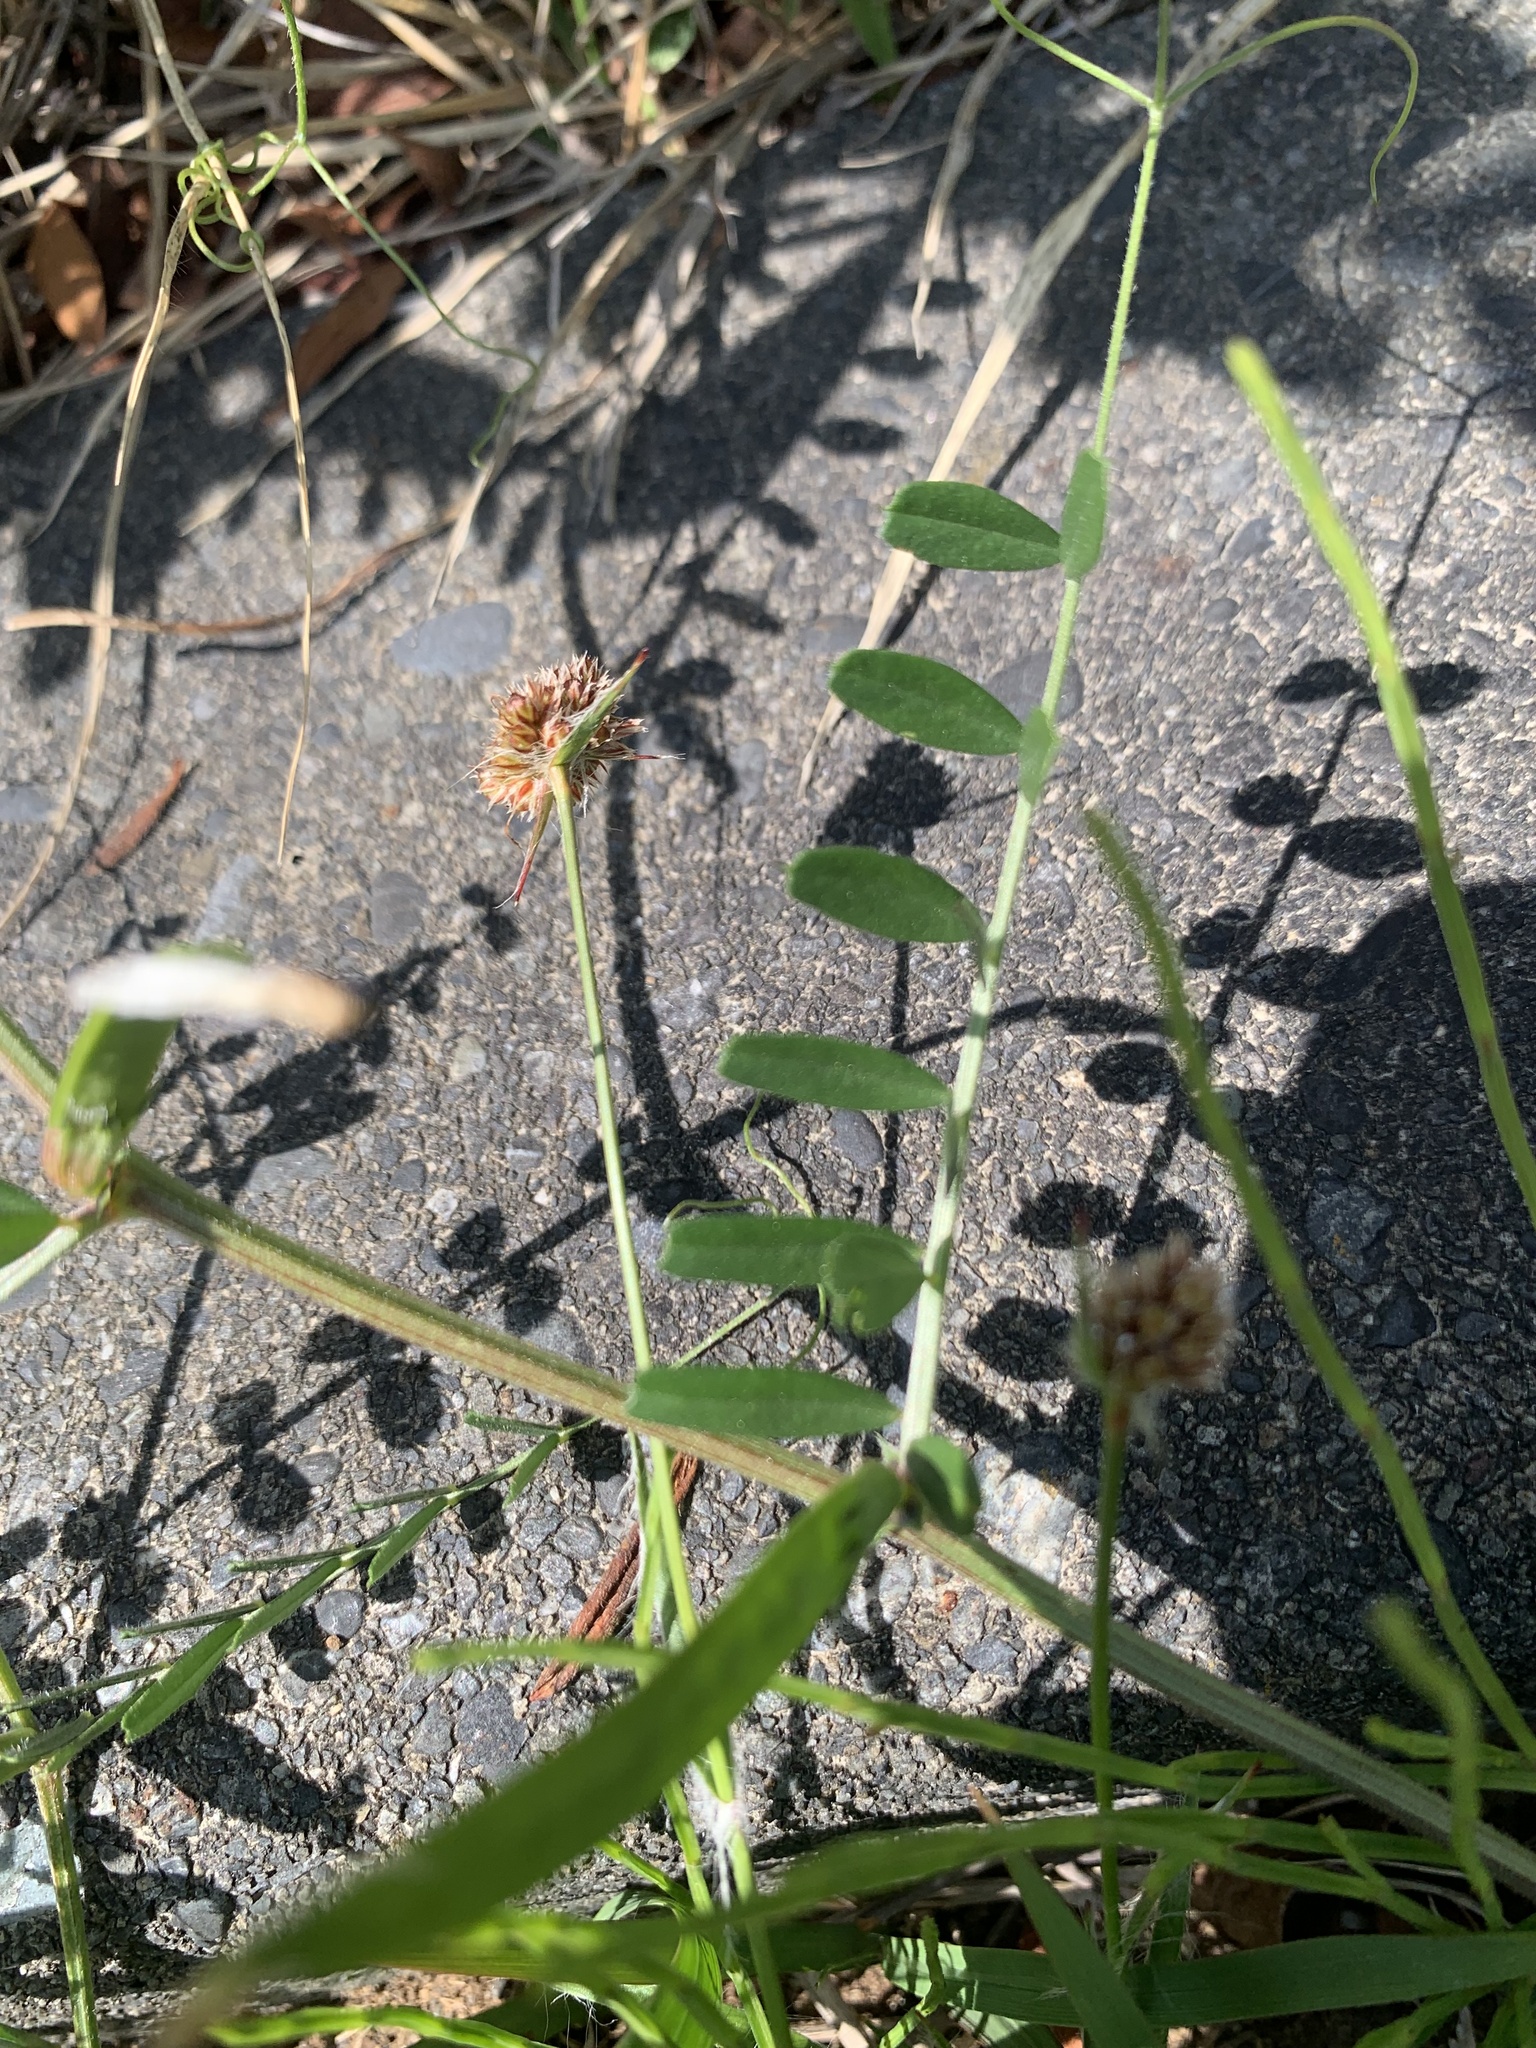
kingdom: Plantae
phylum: Tracheophyta
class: Liliopsida
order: Poales
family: Juncaceae
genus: Luzula
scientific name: Luzula capitata
